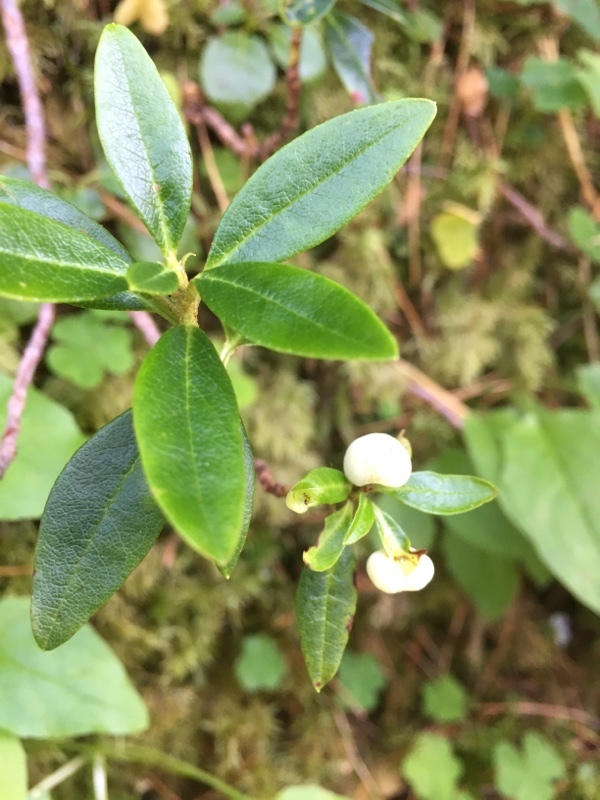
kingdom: Plantae
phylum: Tracheophyta
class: Magnoliopsida
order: Ericales
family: Ericaceae
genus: Rhododendron
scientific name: Rhododendron ferrugineum
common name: Alpenrose
